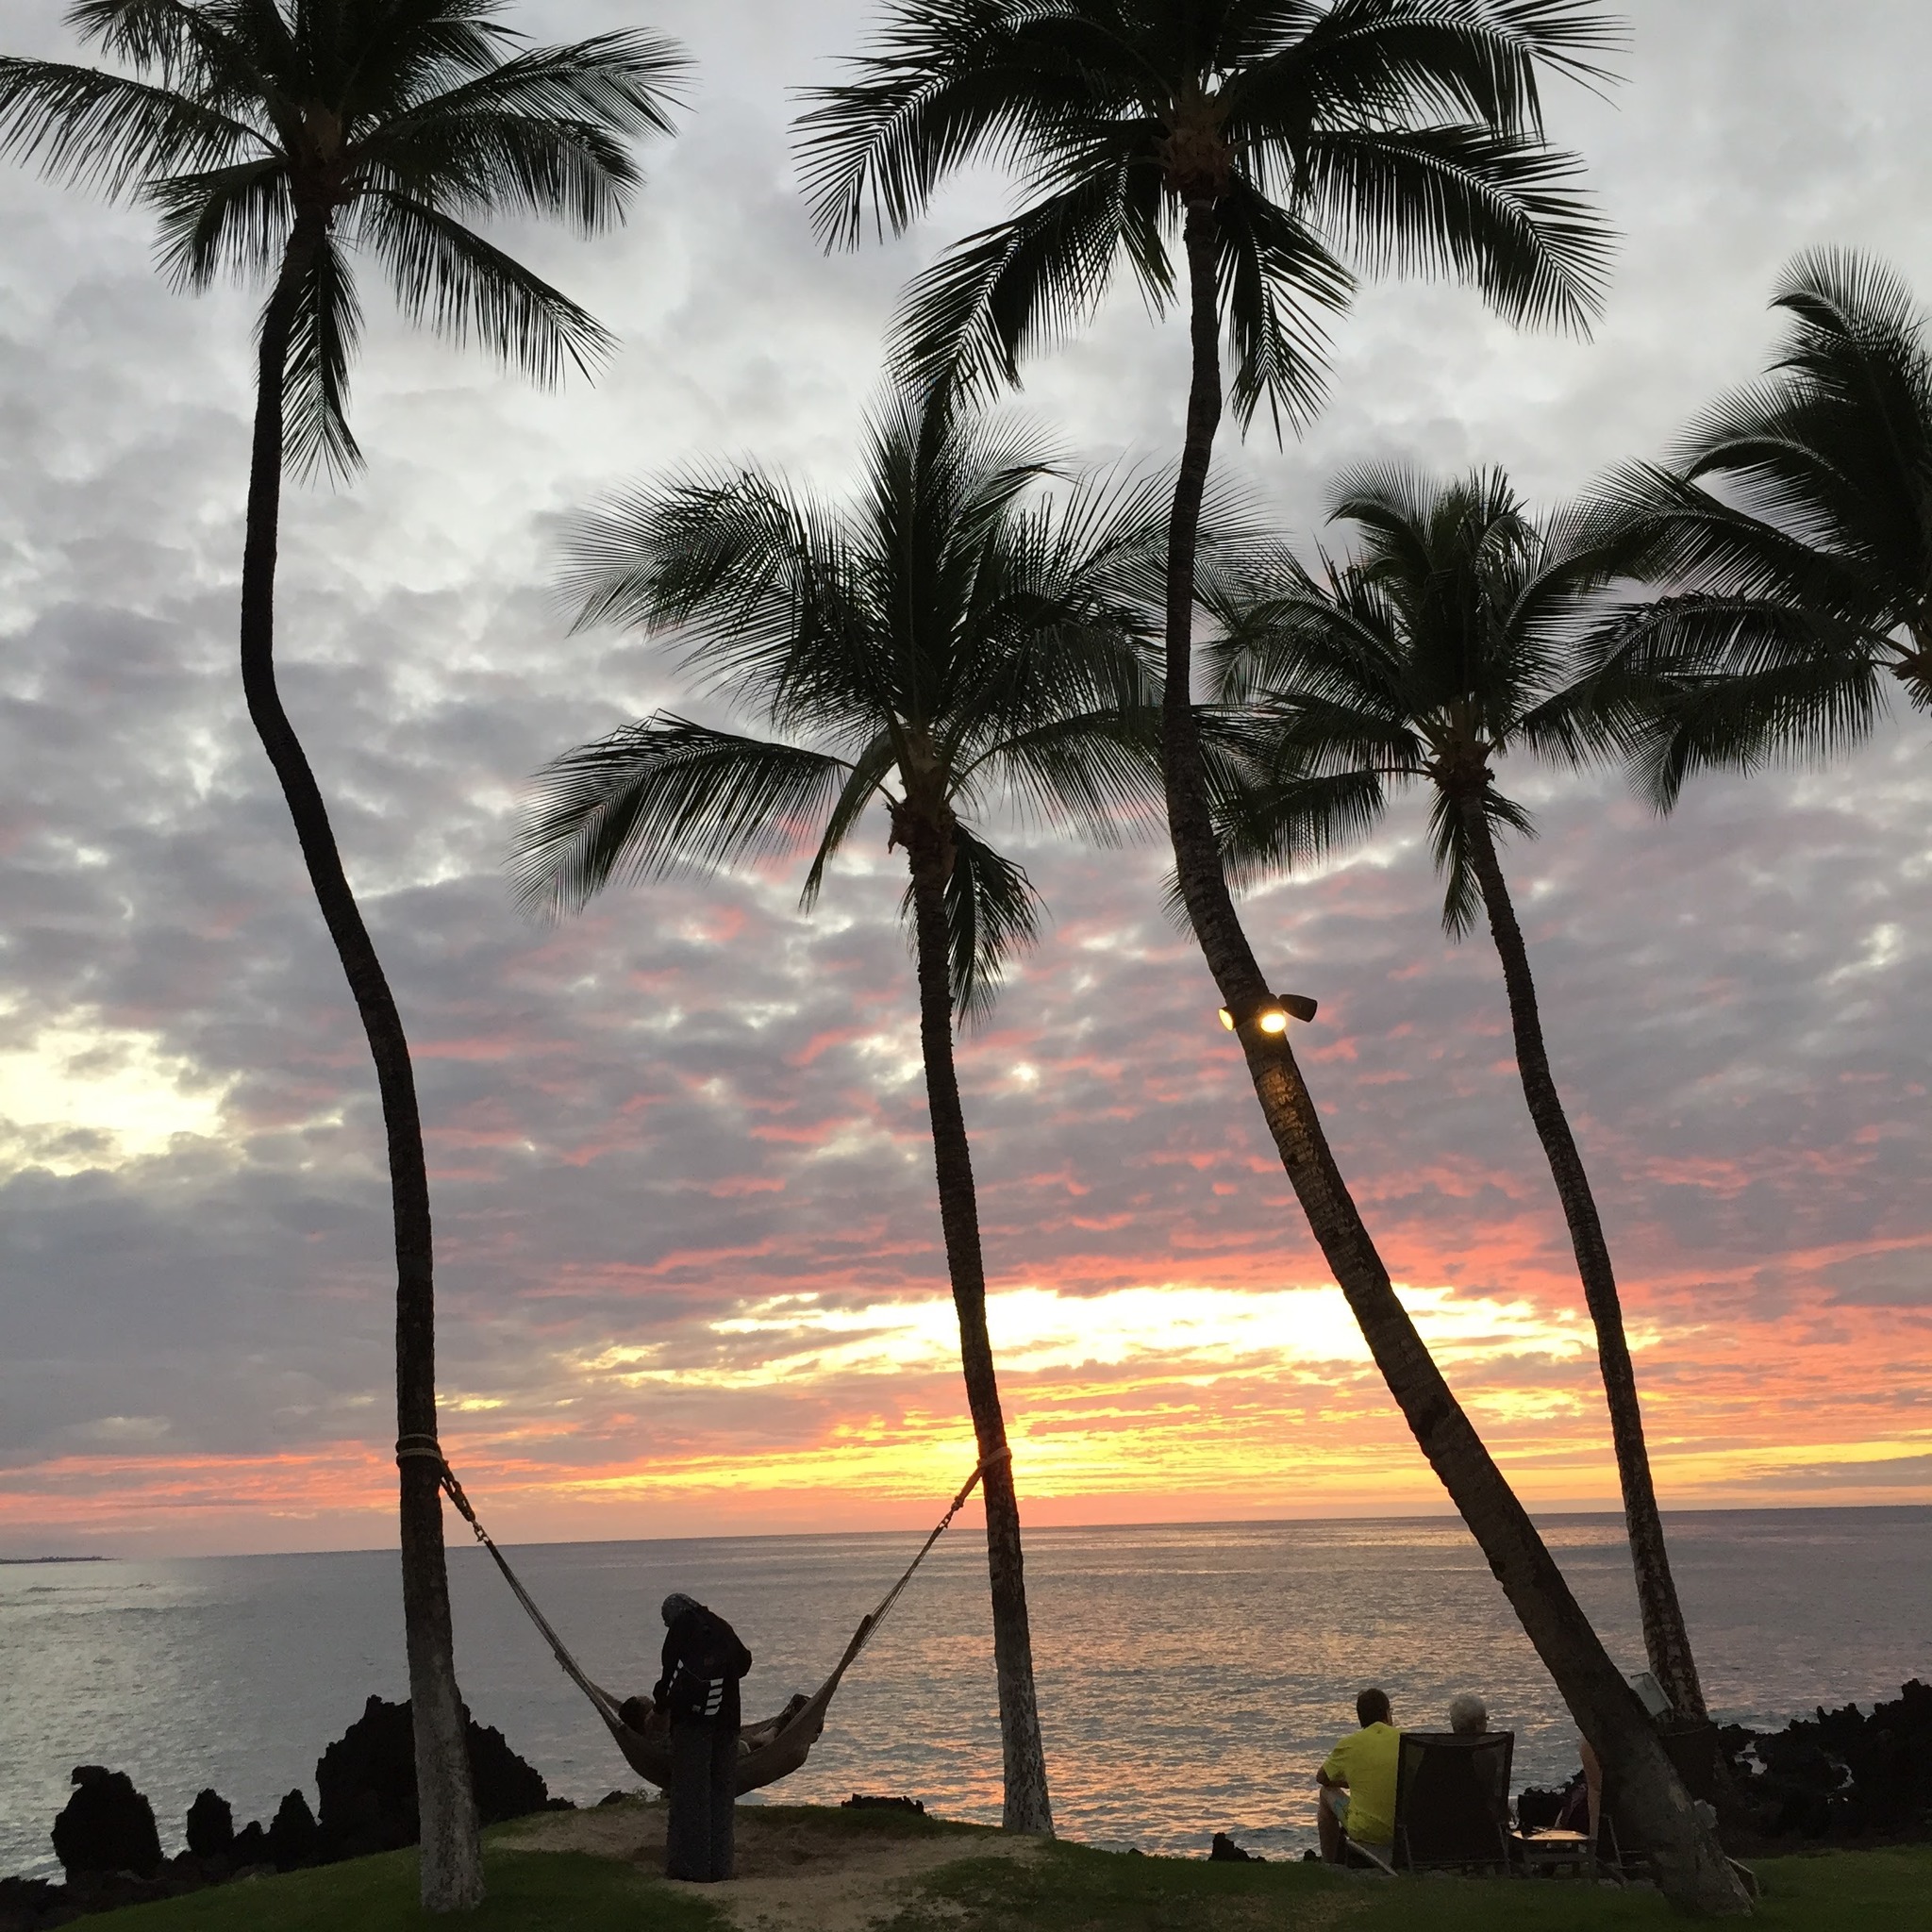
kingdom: Plantae
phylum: Tracheophyta
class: Liliopsida
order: Arecales
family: Arecaceae
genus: Cocos
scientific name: Cocos nucifera
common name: Coconut palm
